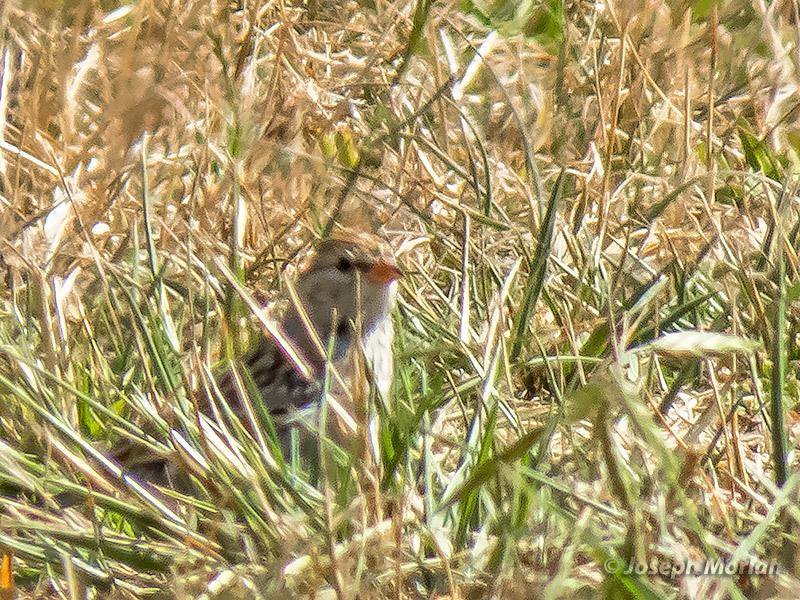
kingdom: Animalia
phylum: Chordata
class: Aves
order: Passeriformes
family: Passerellidae
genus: Spizella
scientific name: Spizella passerina
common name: Chipping sparrow
